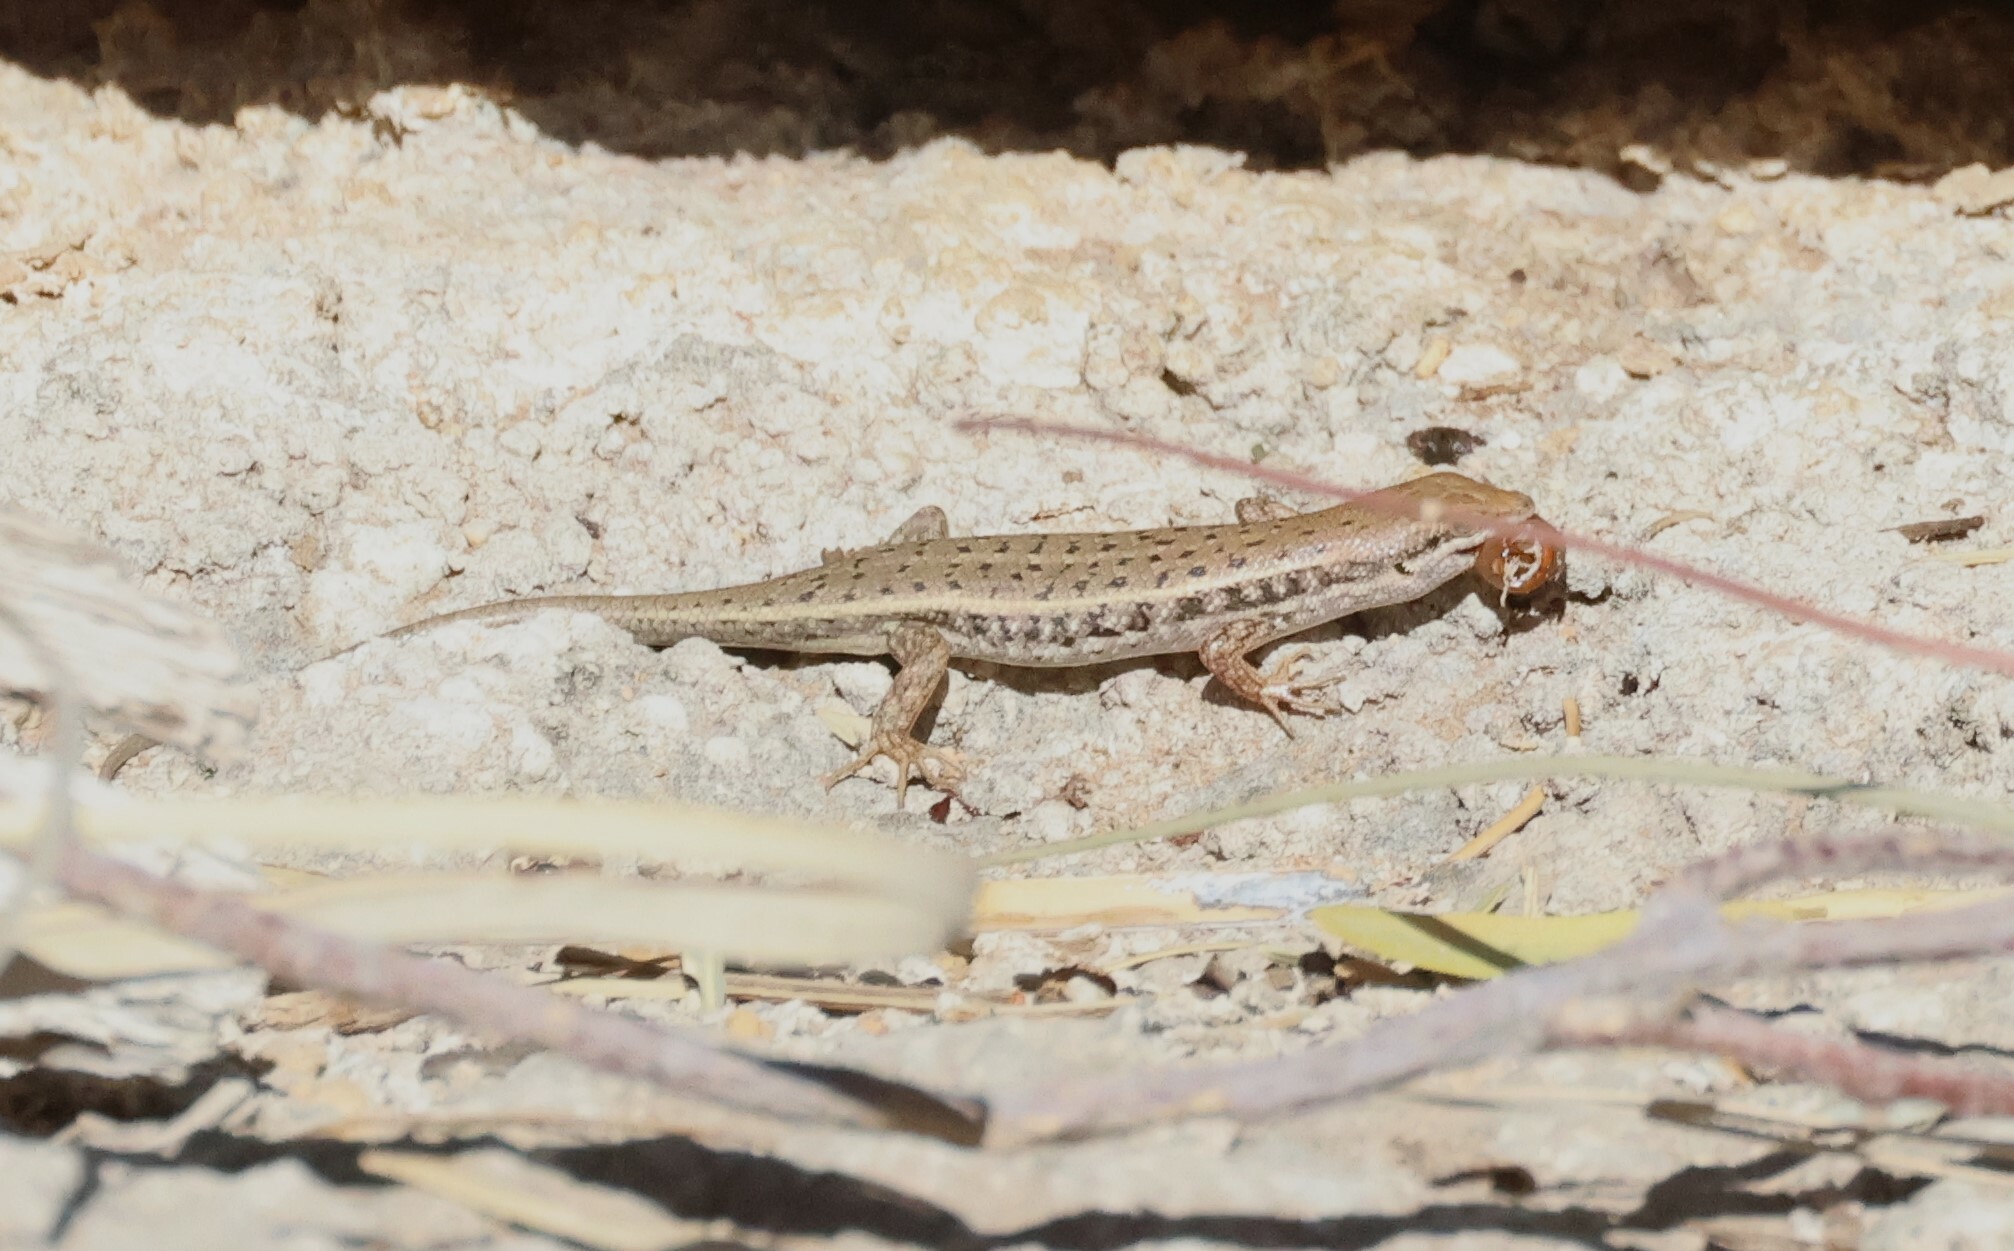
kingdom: Animalia
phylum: Chordata
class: Squamata
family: Scincidae
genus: Trachylepis
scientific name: Trachylepis variegata
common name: Variegated skink
